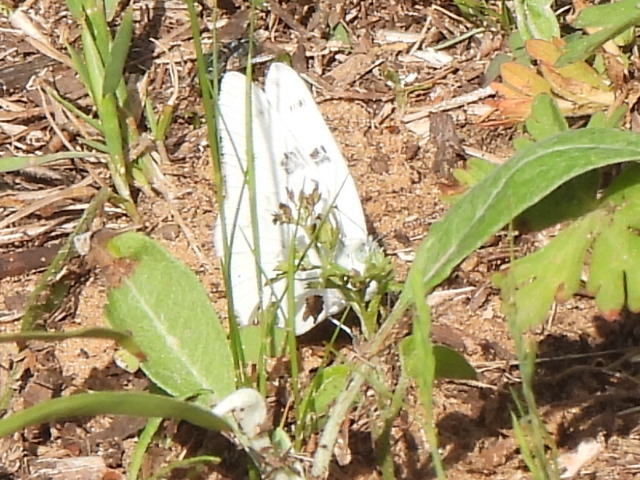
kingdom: Animalia
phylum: Arthropoda
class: Insecta
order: Lepidoptera
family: Pieridae
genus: Pontia
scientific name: Pontia protodice
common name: Checkered white
